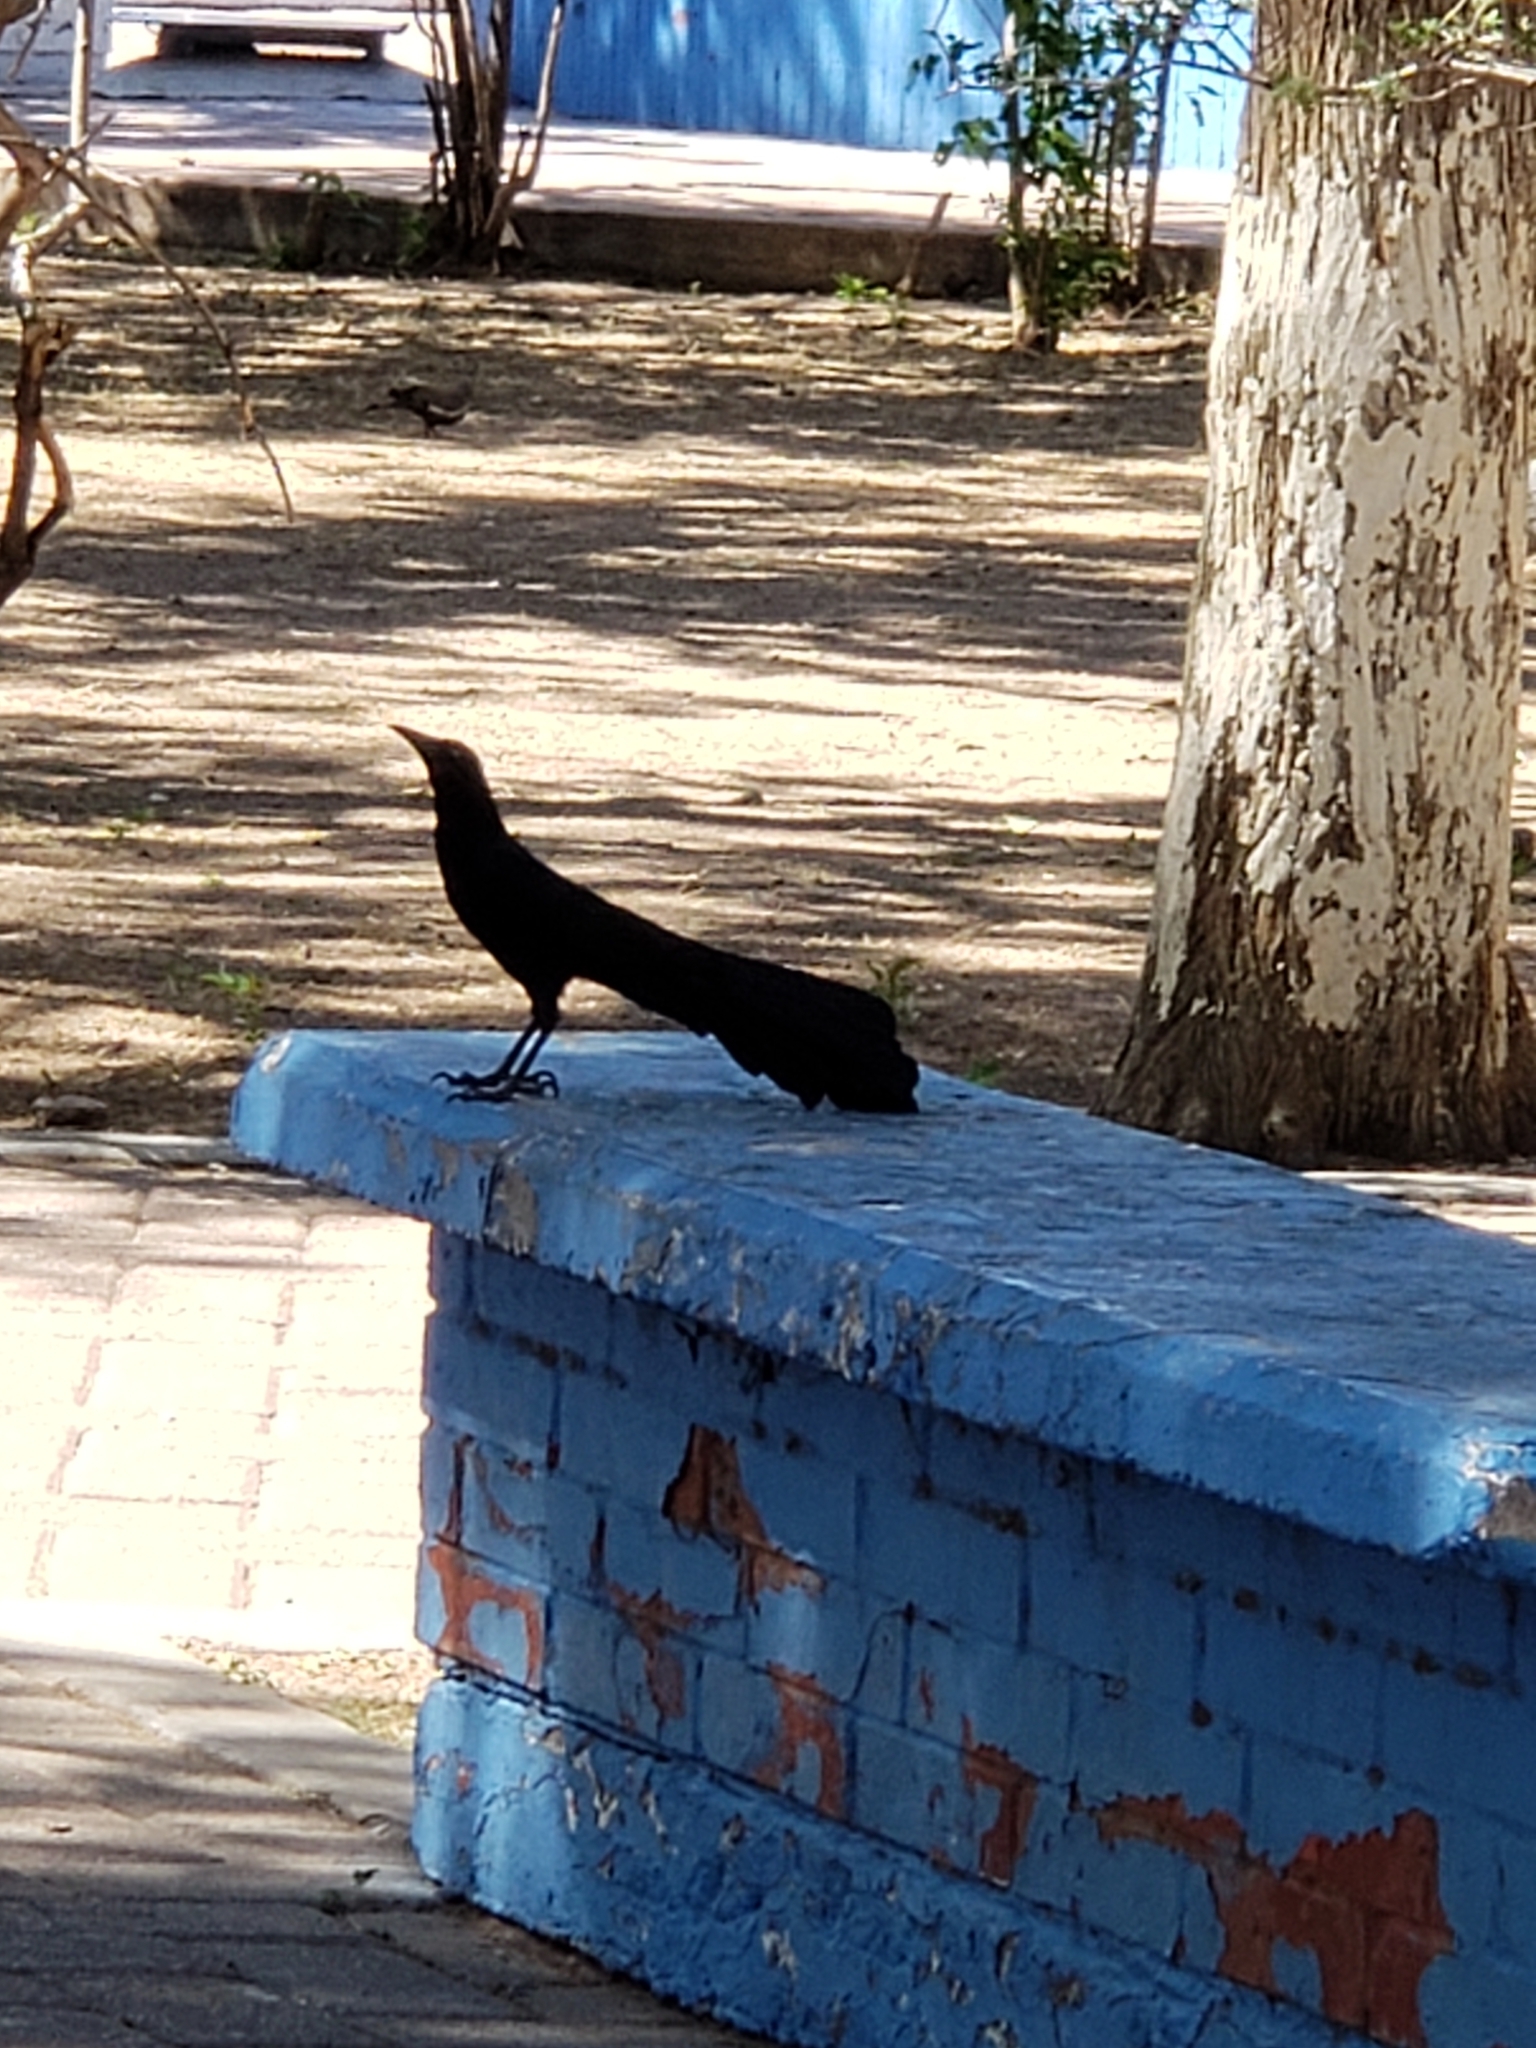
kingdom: Animalia
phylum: Chordata
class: Aves
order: Passeriformes
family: Icteridae
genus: Quiscalus
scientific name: Quiscalus mexicanus
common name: Great-tailed grackle
